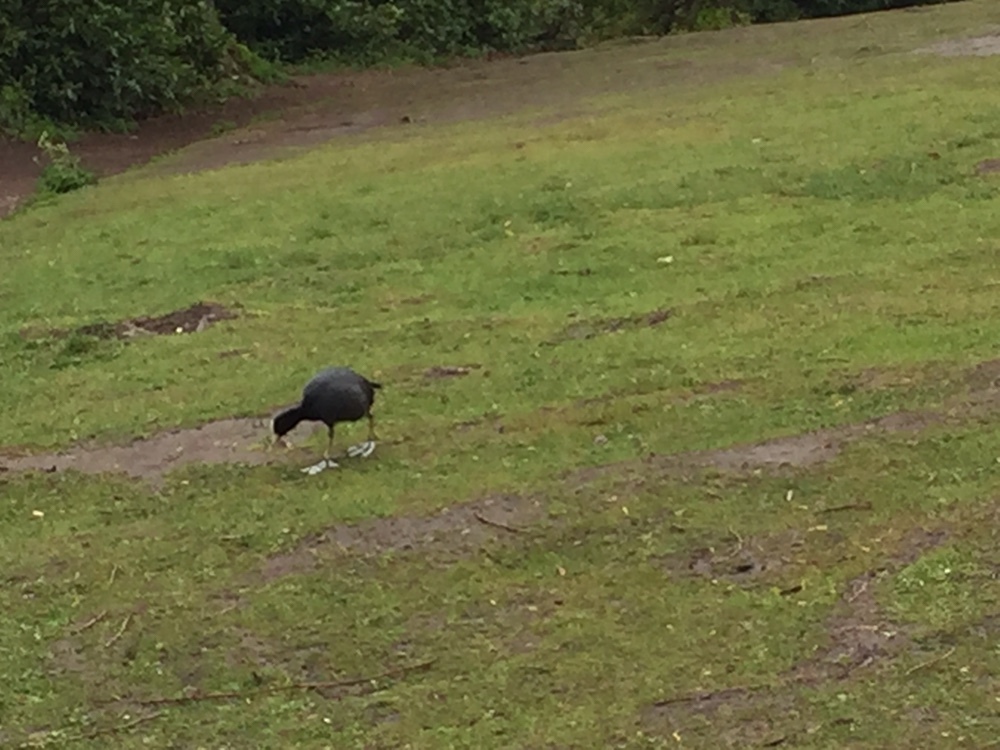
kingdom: Animalia
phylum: Chordata
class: Aves
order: Gruiformes
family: Rallidae
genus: Fulica
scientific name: Fulica atra
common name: Eurasian coot
